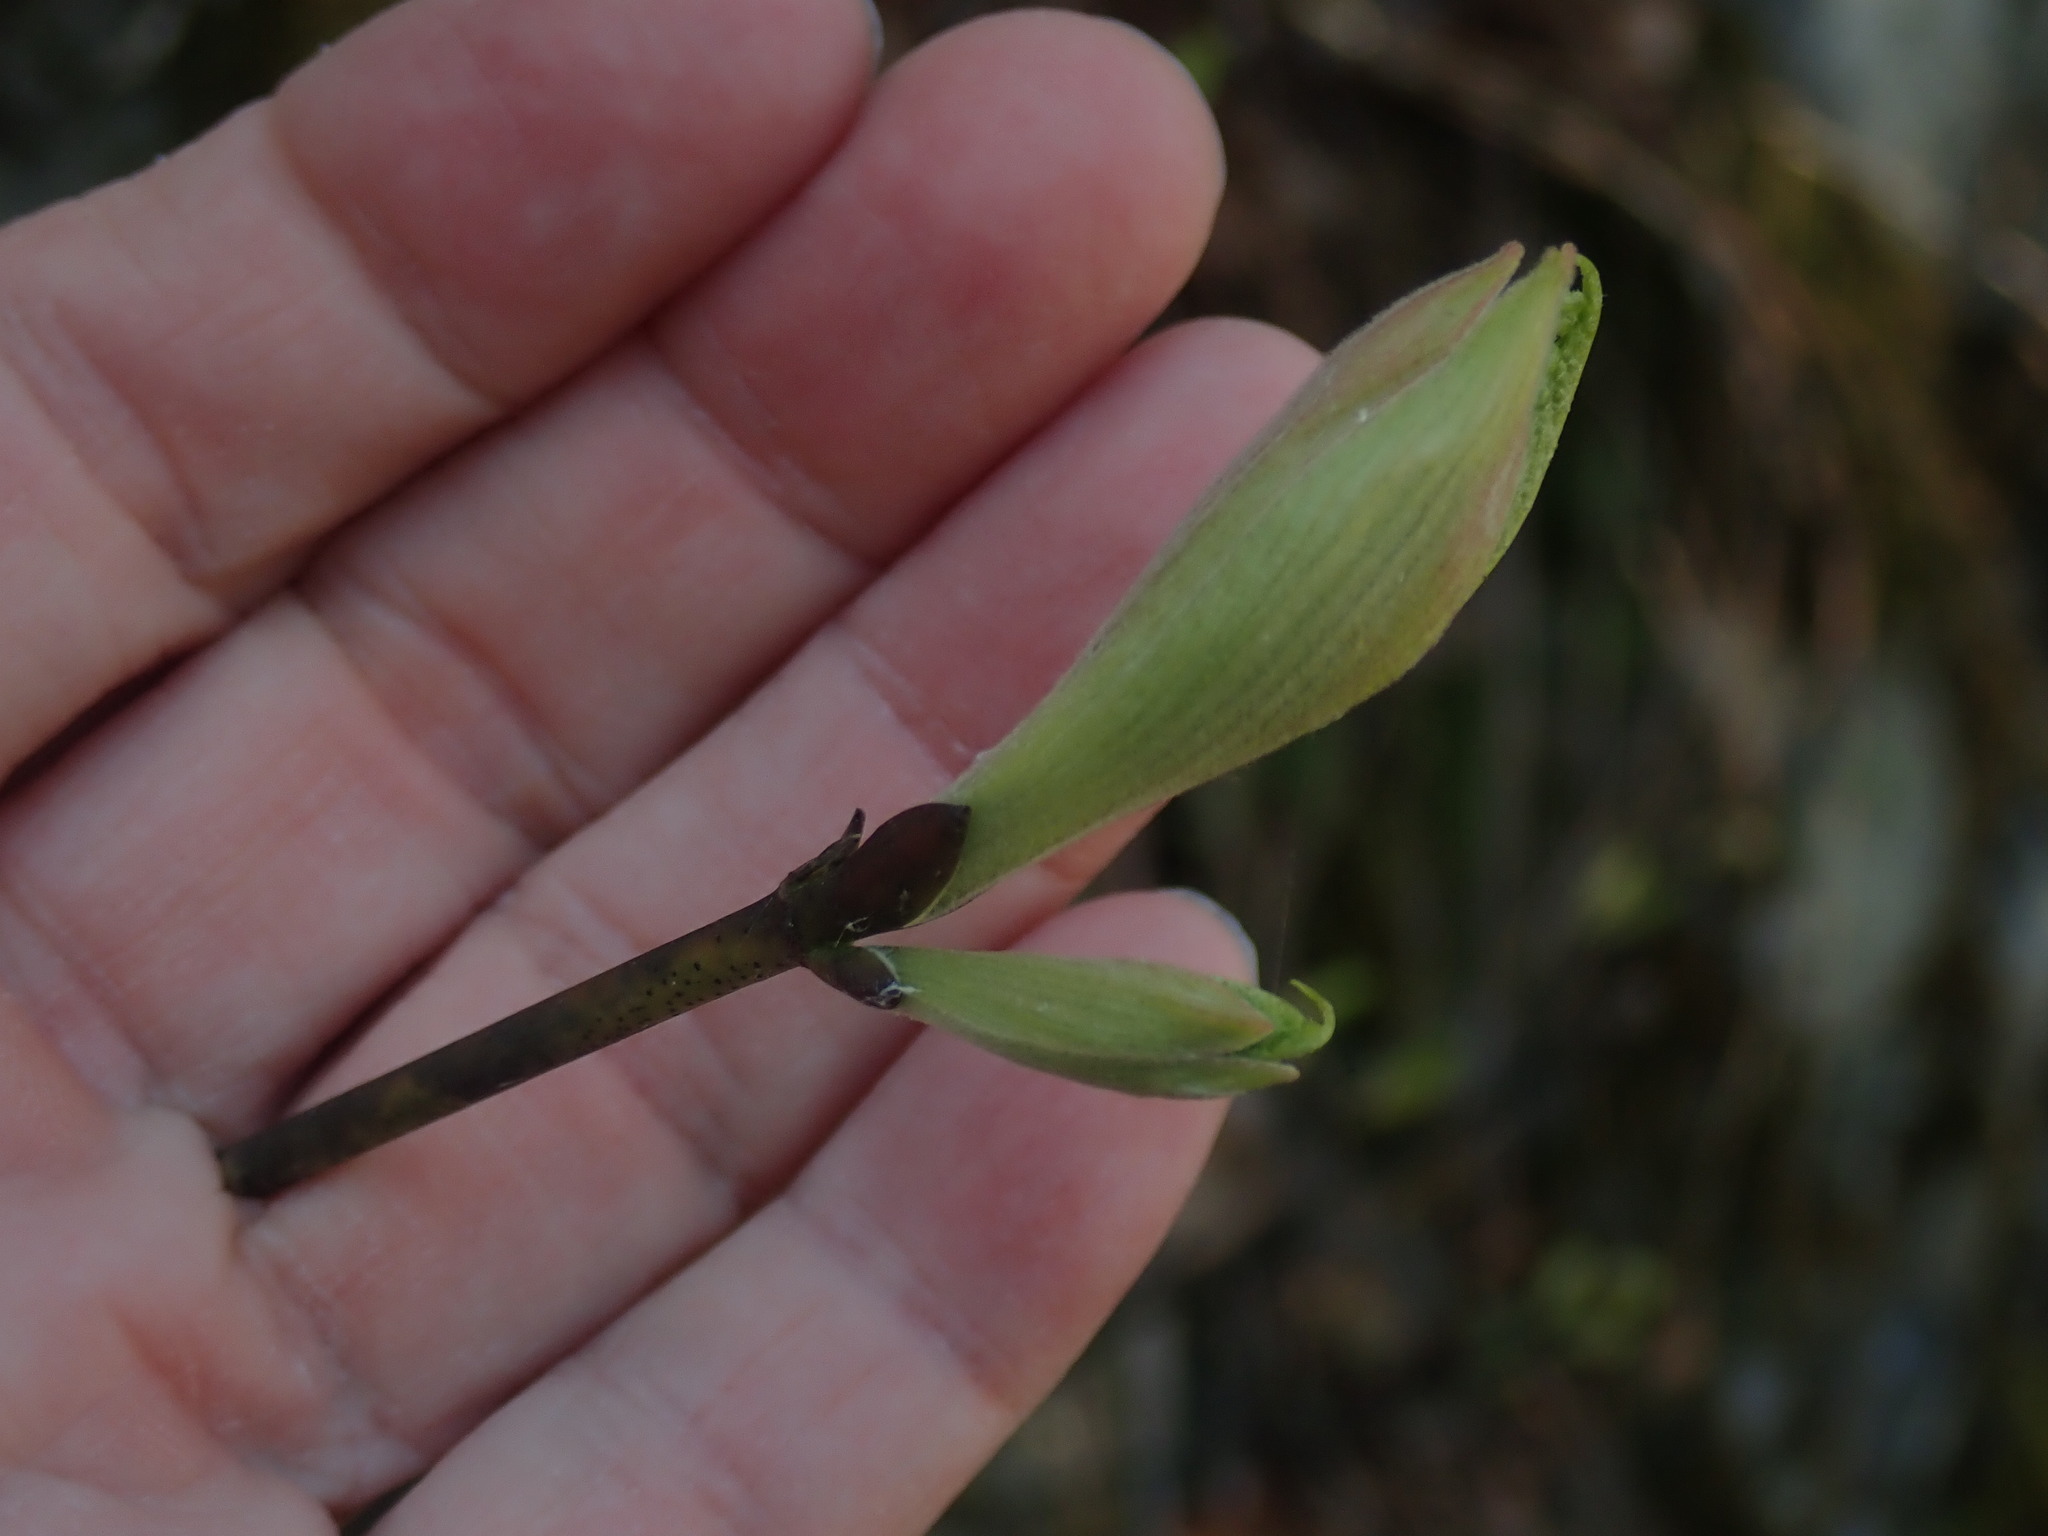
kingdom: Plantae
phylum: Tracheophyta
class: Magnoliopsida
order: Sapindales
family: Sapindaceae
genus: Acer
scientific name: Acer pensylvanicum
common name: Moosewood
